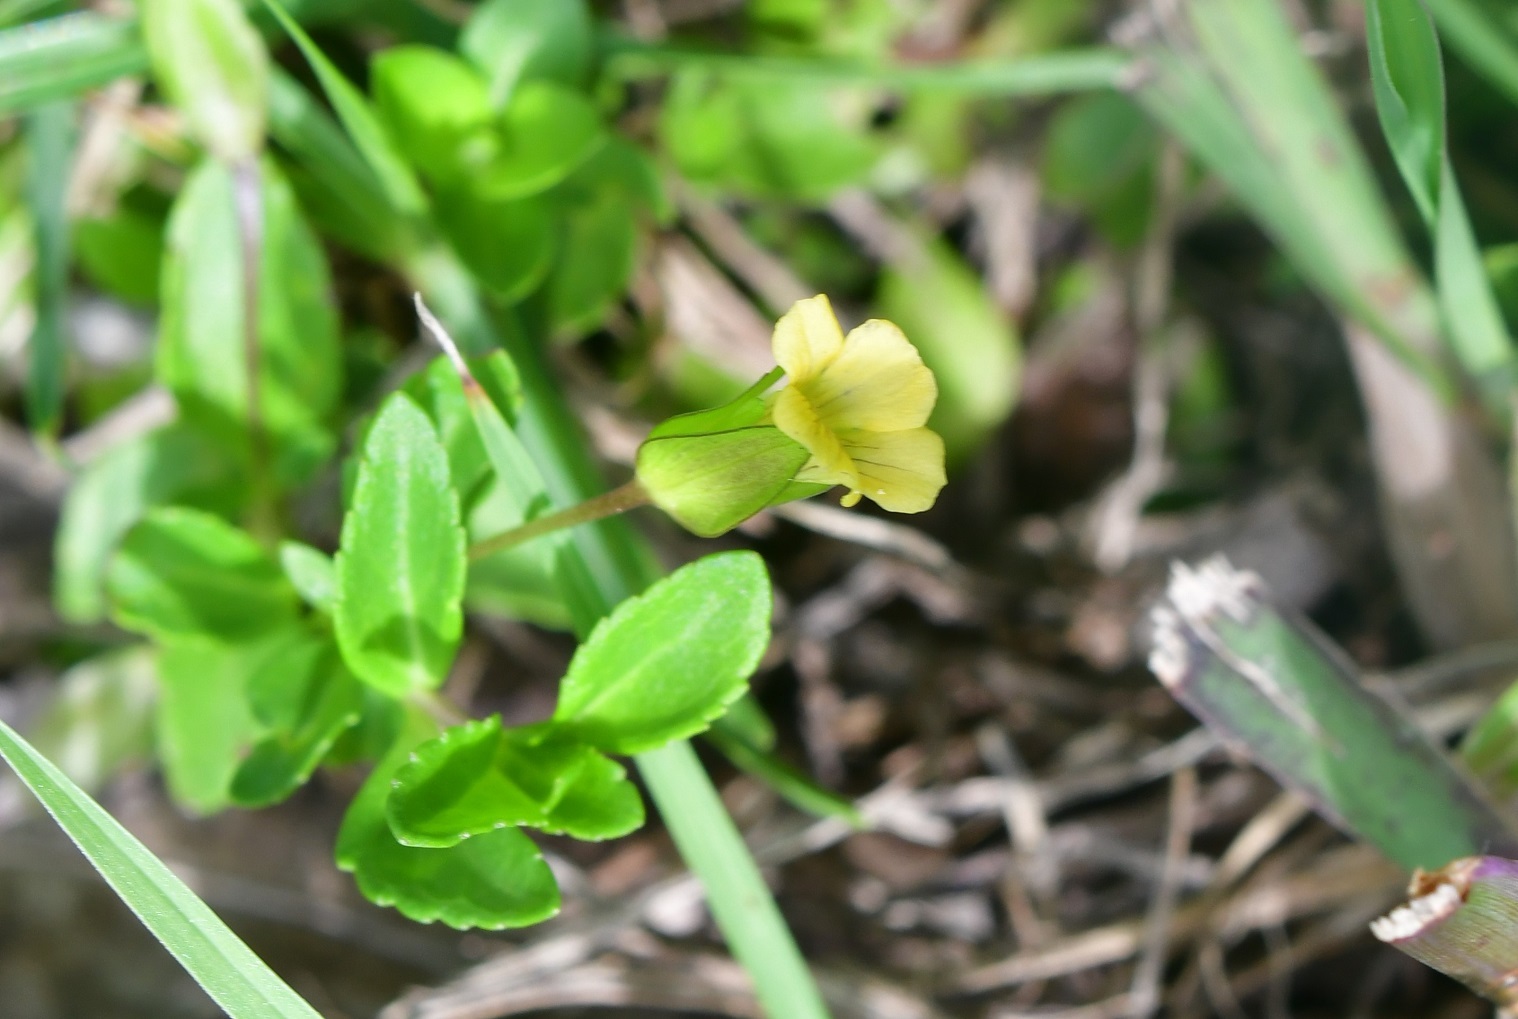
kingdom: Plantae
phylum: Tracheophyta
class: Magnoliopsida
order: Lamiales
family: Plantaginaceae
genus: Mecardonia
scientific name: Mecardonia procumbens
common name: Baby jump-up
